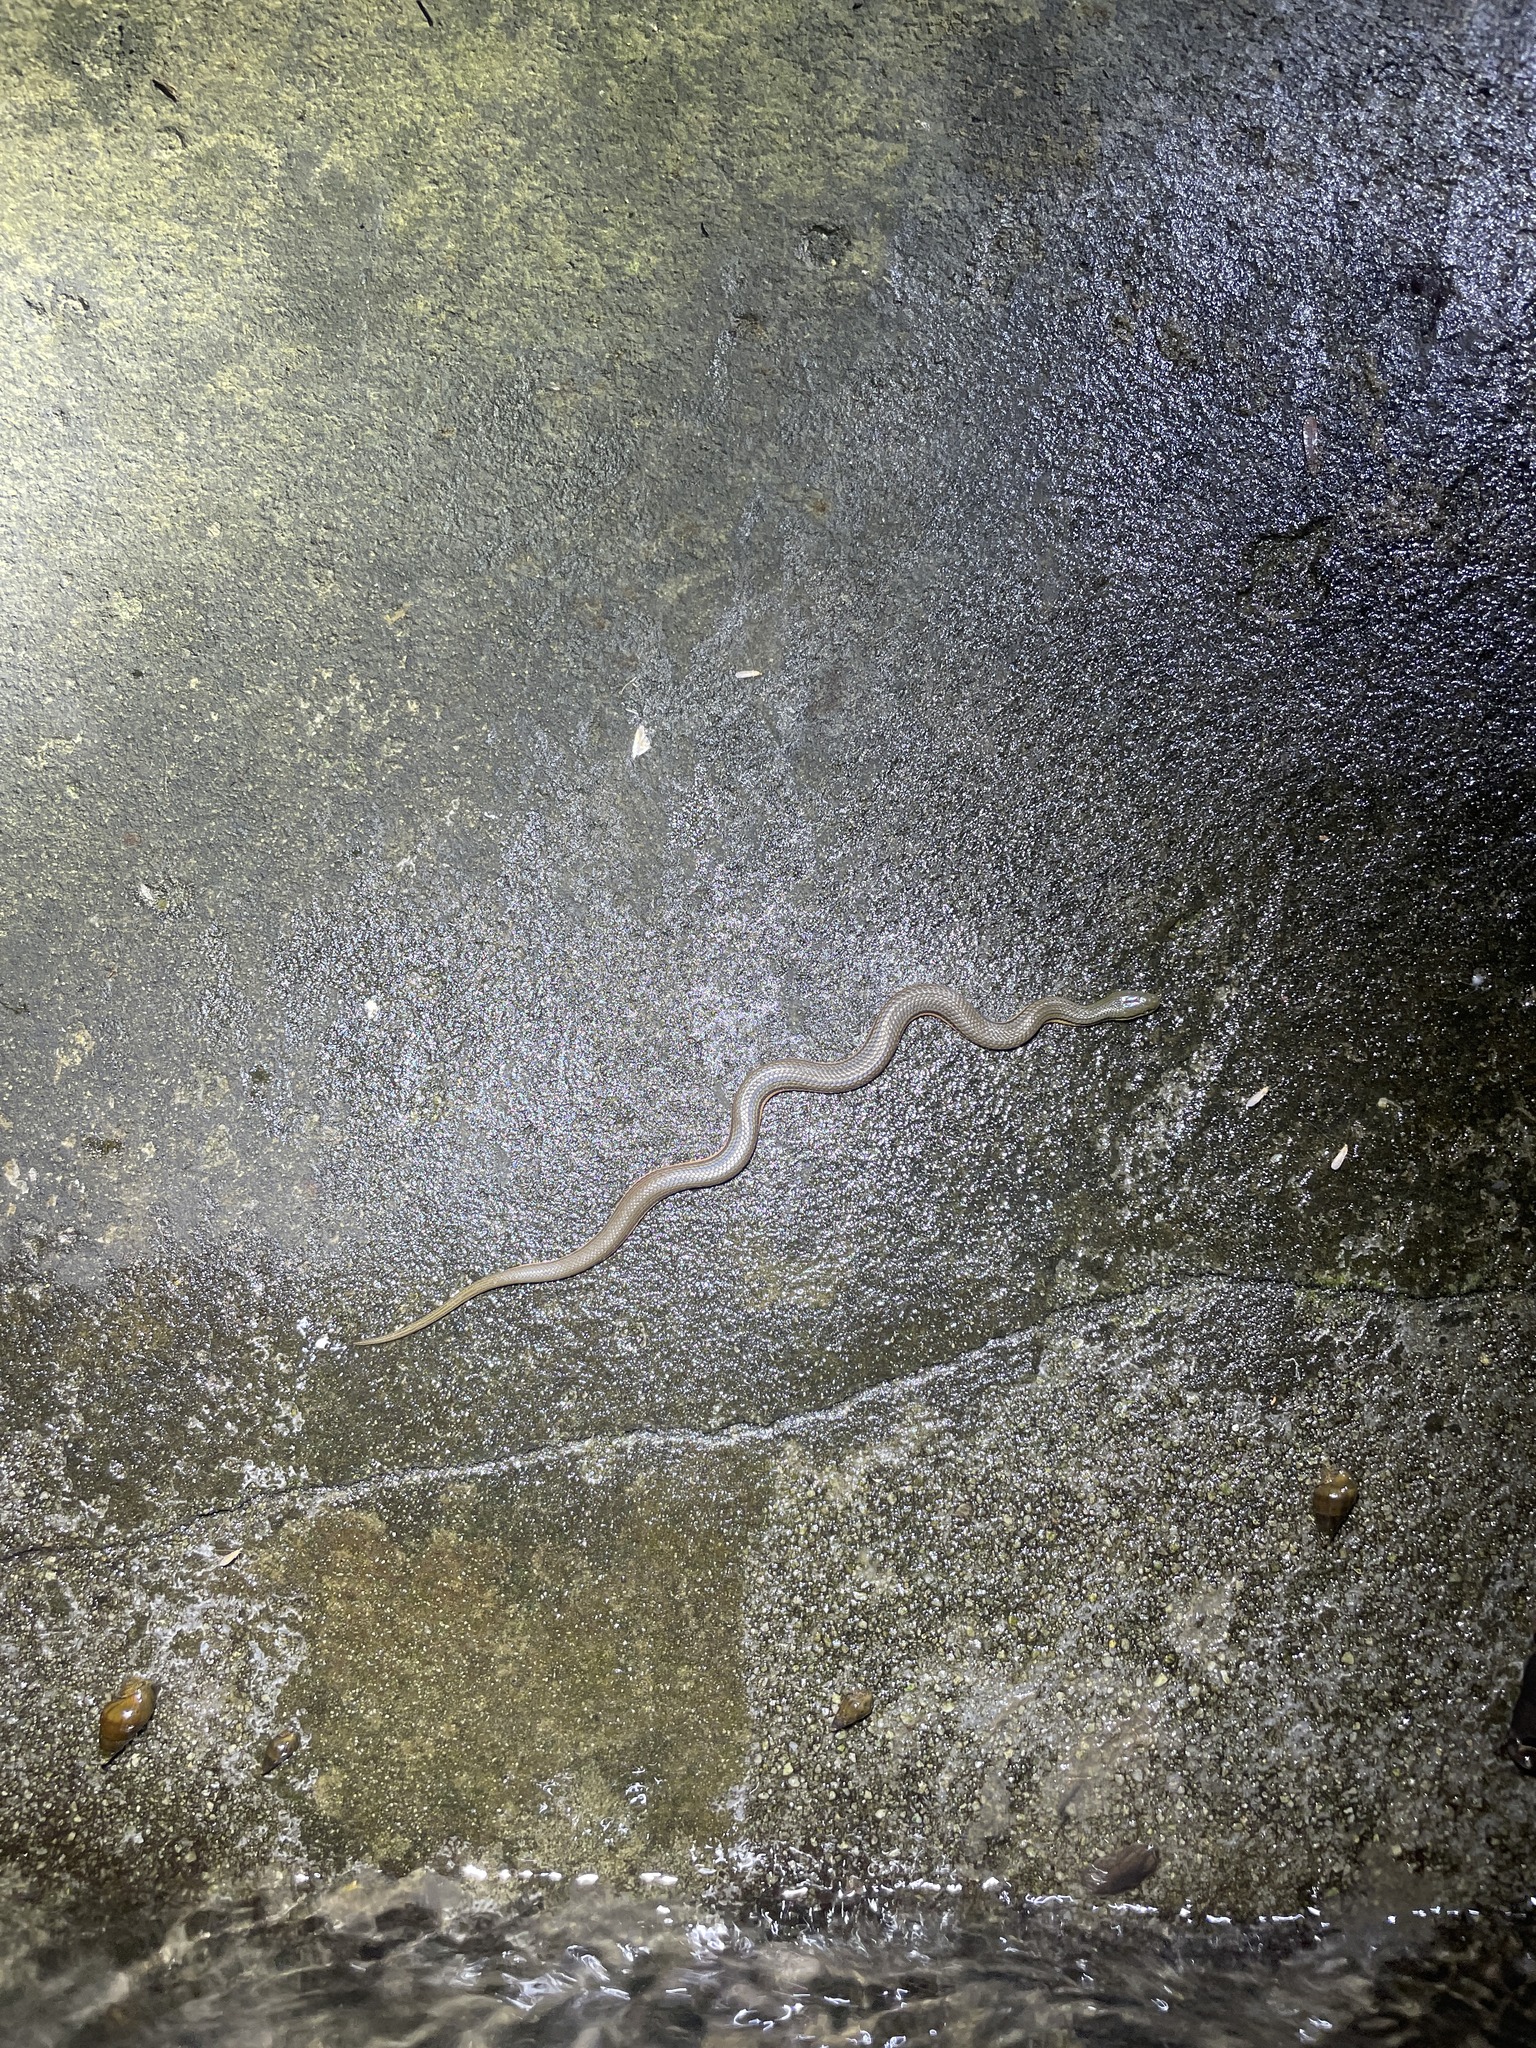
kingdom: Animalia
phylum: Chordata
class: Squamata
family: Colubridae
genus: Opisthotropis
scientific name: Opisthotropis lateralis
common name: Tonkin mountain keelback
